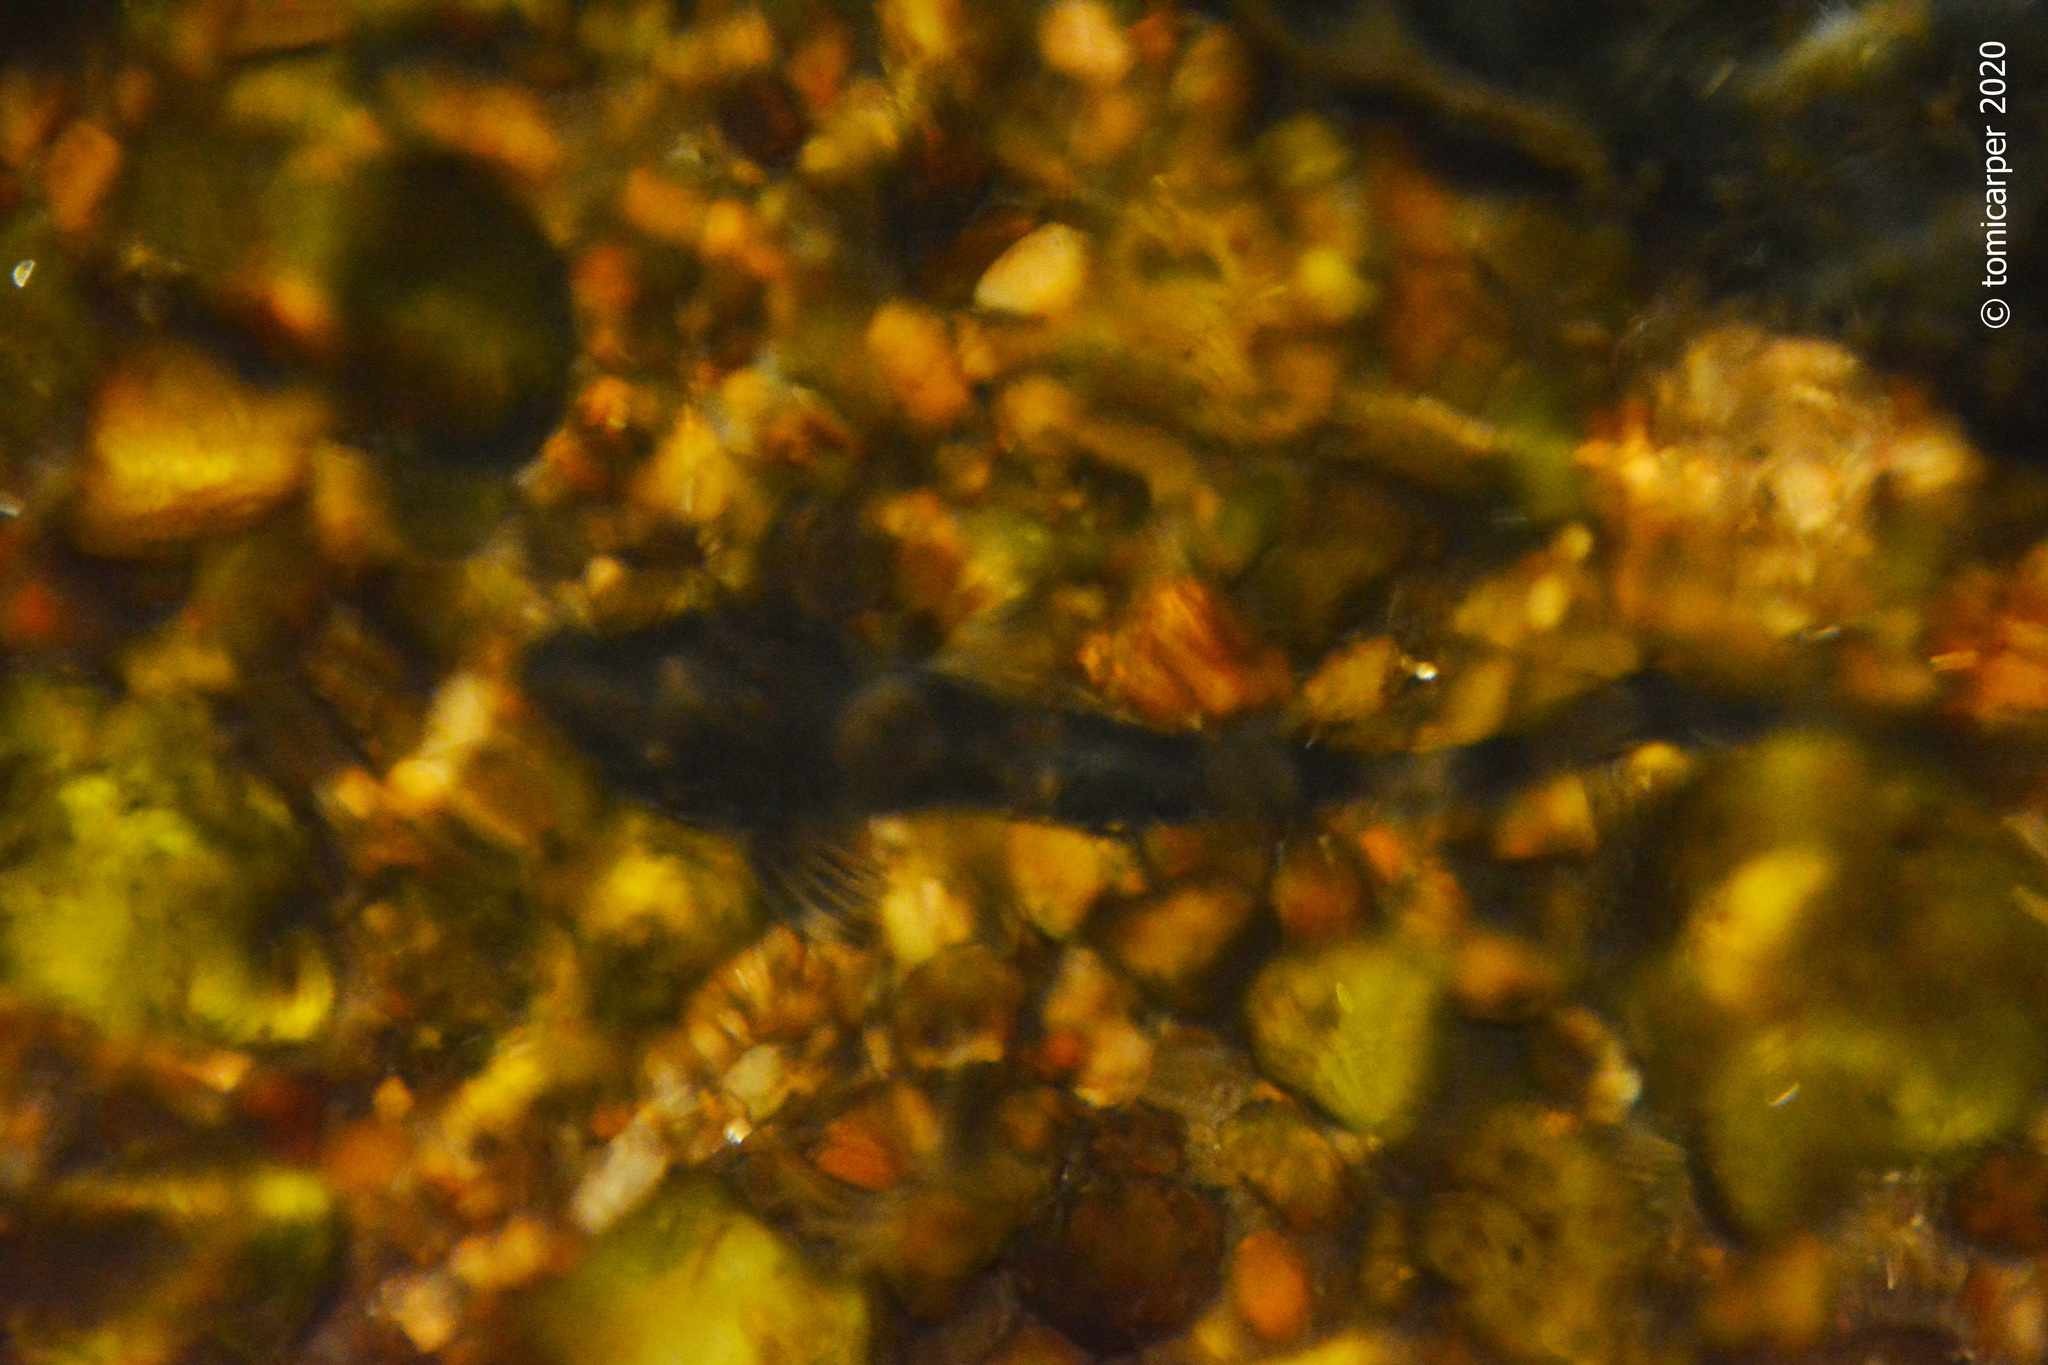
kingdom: Animalia
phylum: Chordata
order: Siluriformes
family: Loricariidae
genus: Rineloricaria
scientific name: Rineloricaria catamarcensis
